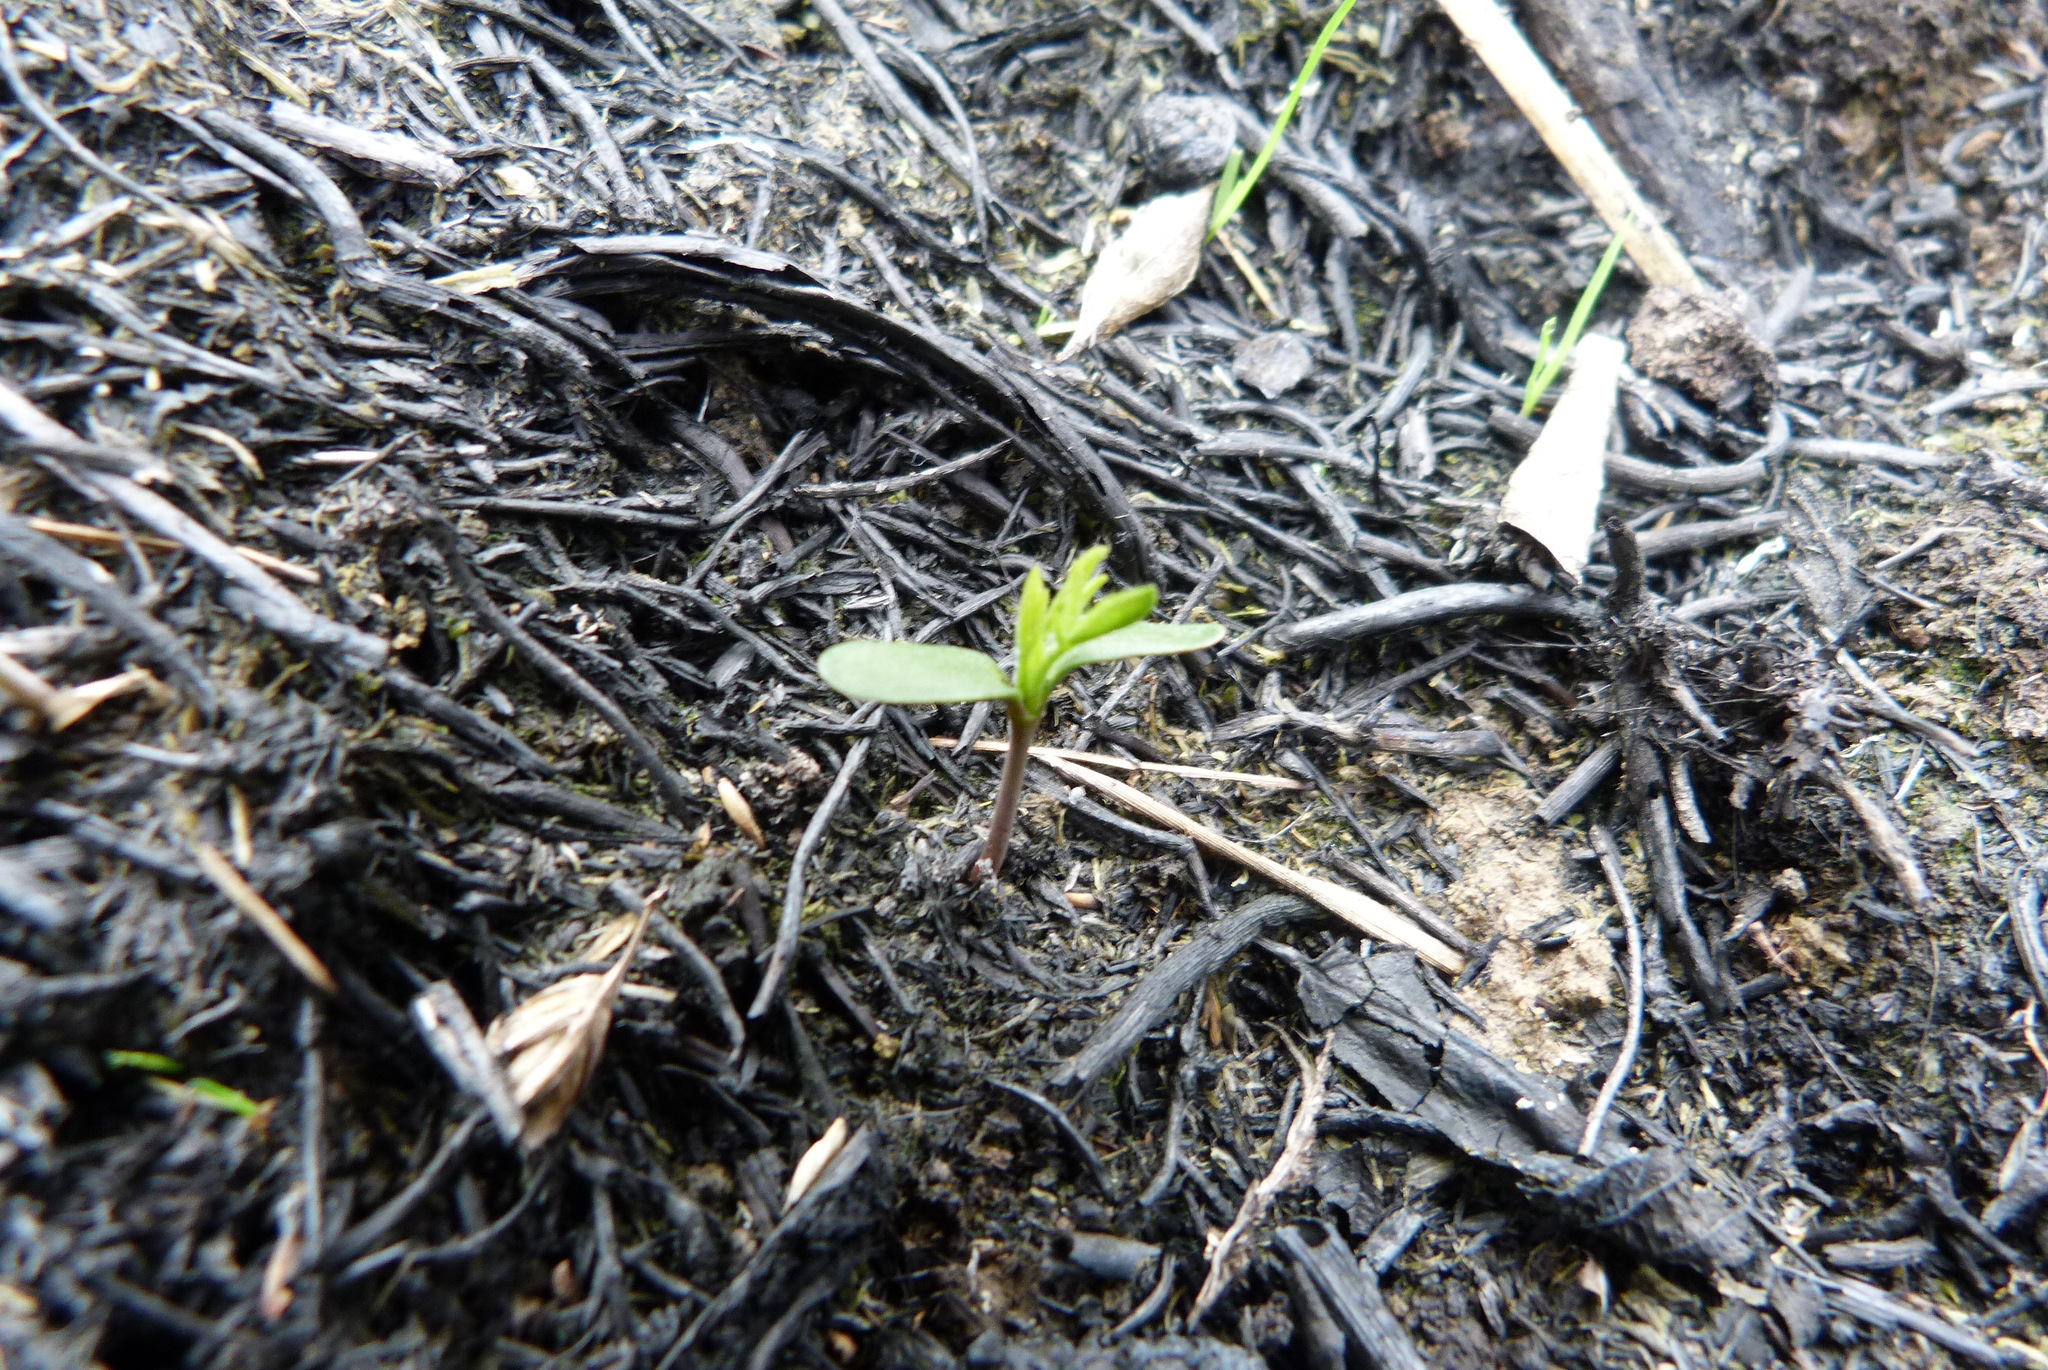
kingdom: Plantae
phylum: Tracheophyta
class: Magnoliopsida
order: Fabales
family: Fabaceae
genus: Cytisus
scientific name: Cytisus scoparius
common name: Scotch broom
